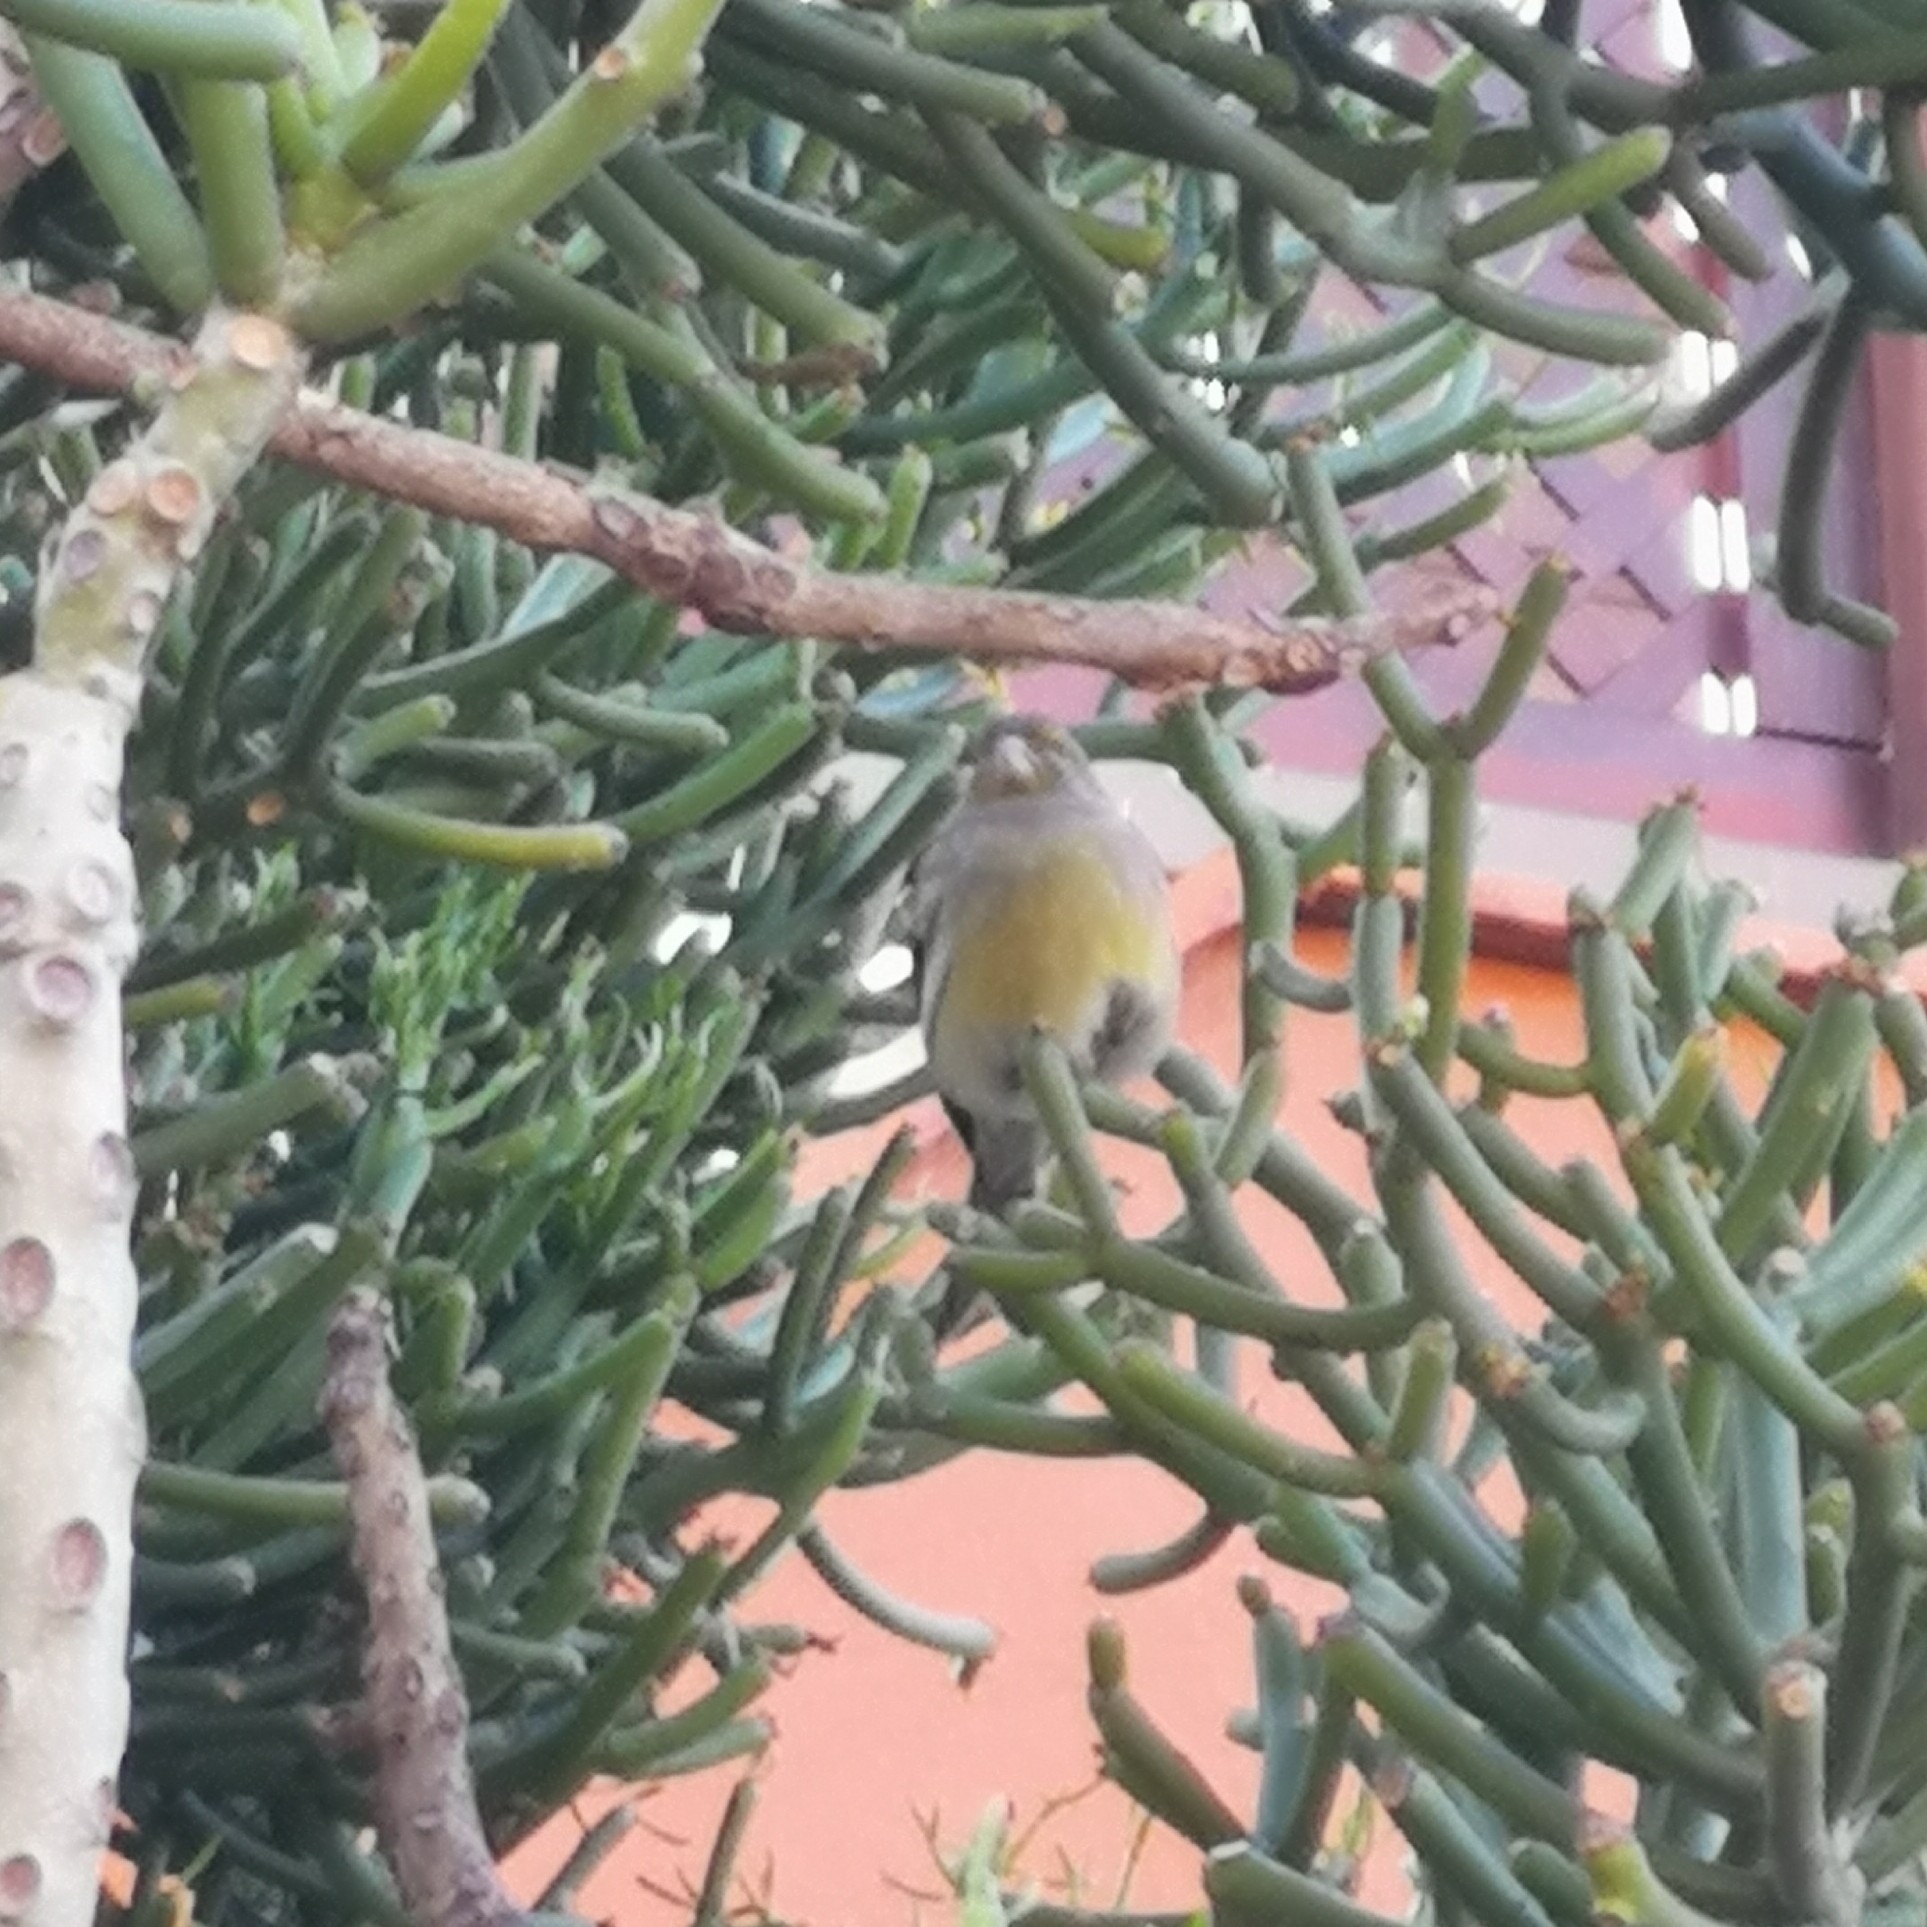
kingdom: Animalia
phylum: Chordata
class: Aves
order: Passeriformes
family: Fringillidae
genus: Serinus
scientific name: Serinus canaria
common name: Atlantic canary
